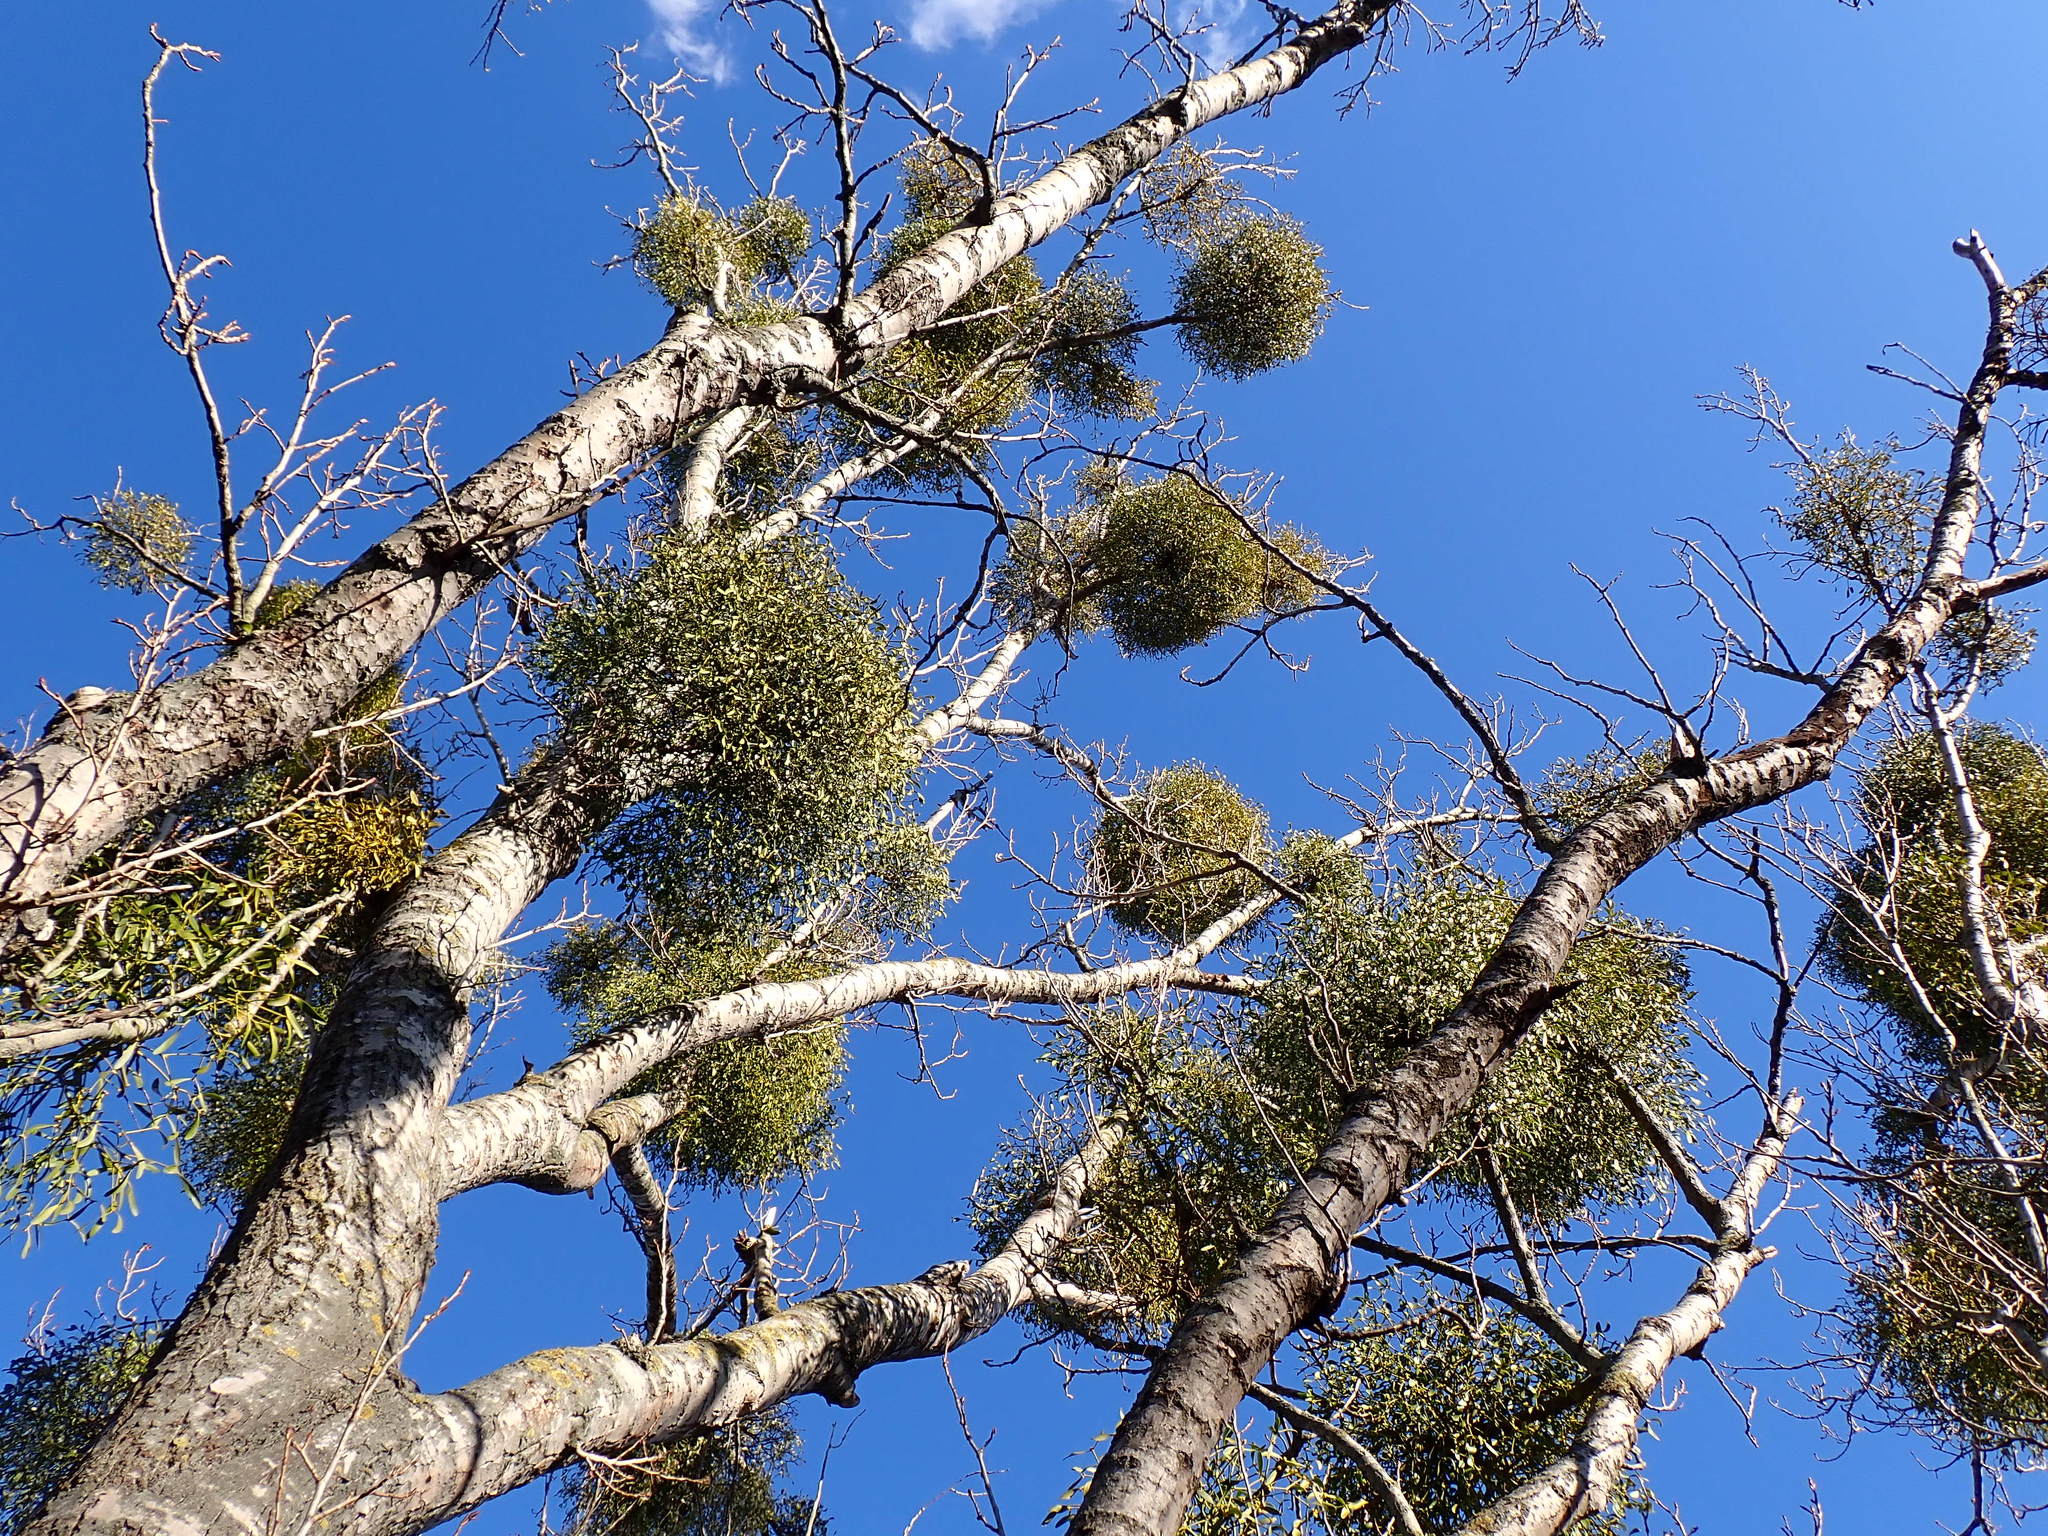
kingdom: Plantae
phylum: Tracheophyta
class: Magnoliopsida
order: Santalales
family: Viscaceae
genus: Viscum
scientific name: Viscum album
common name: Mistletoe
